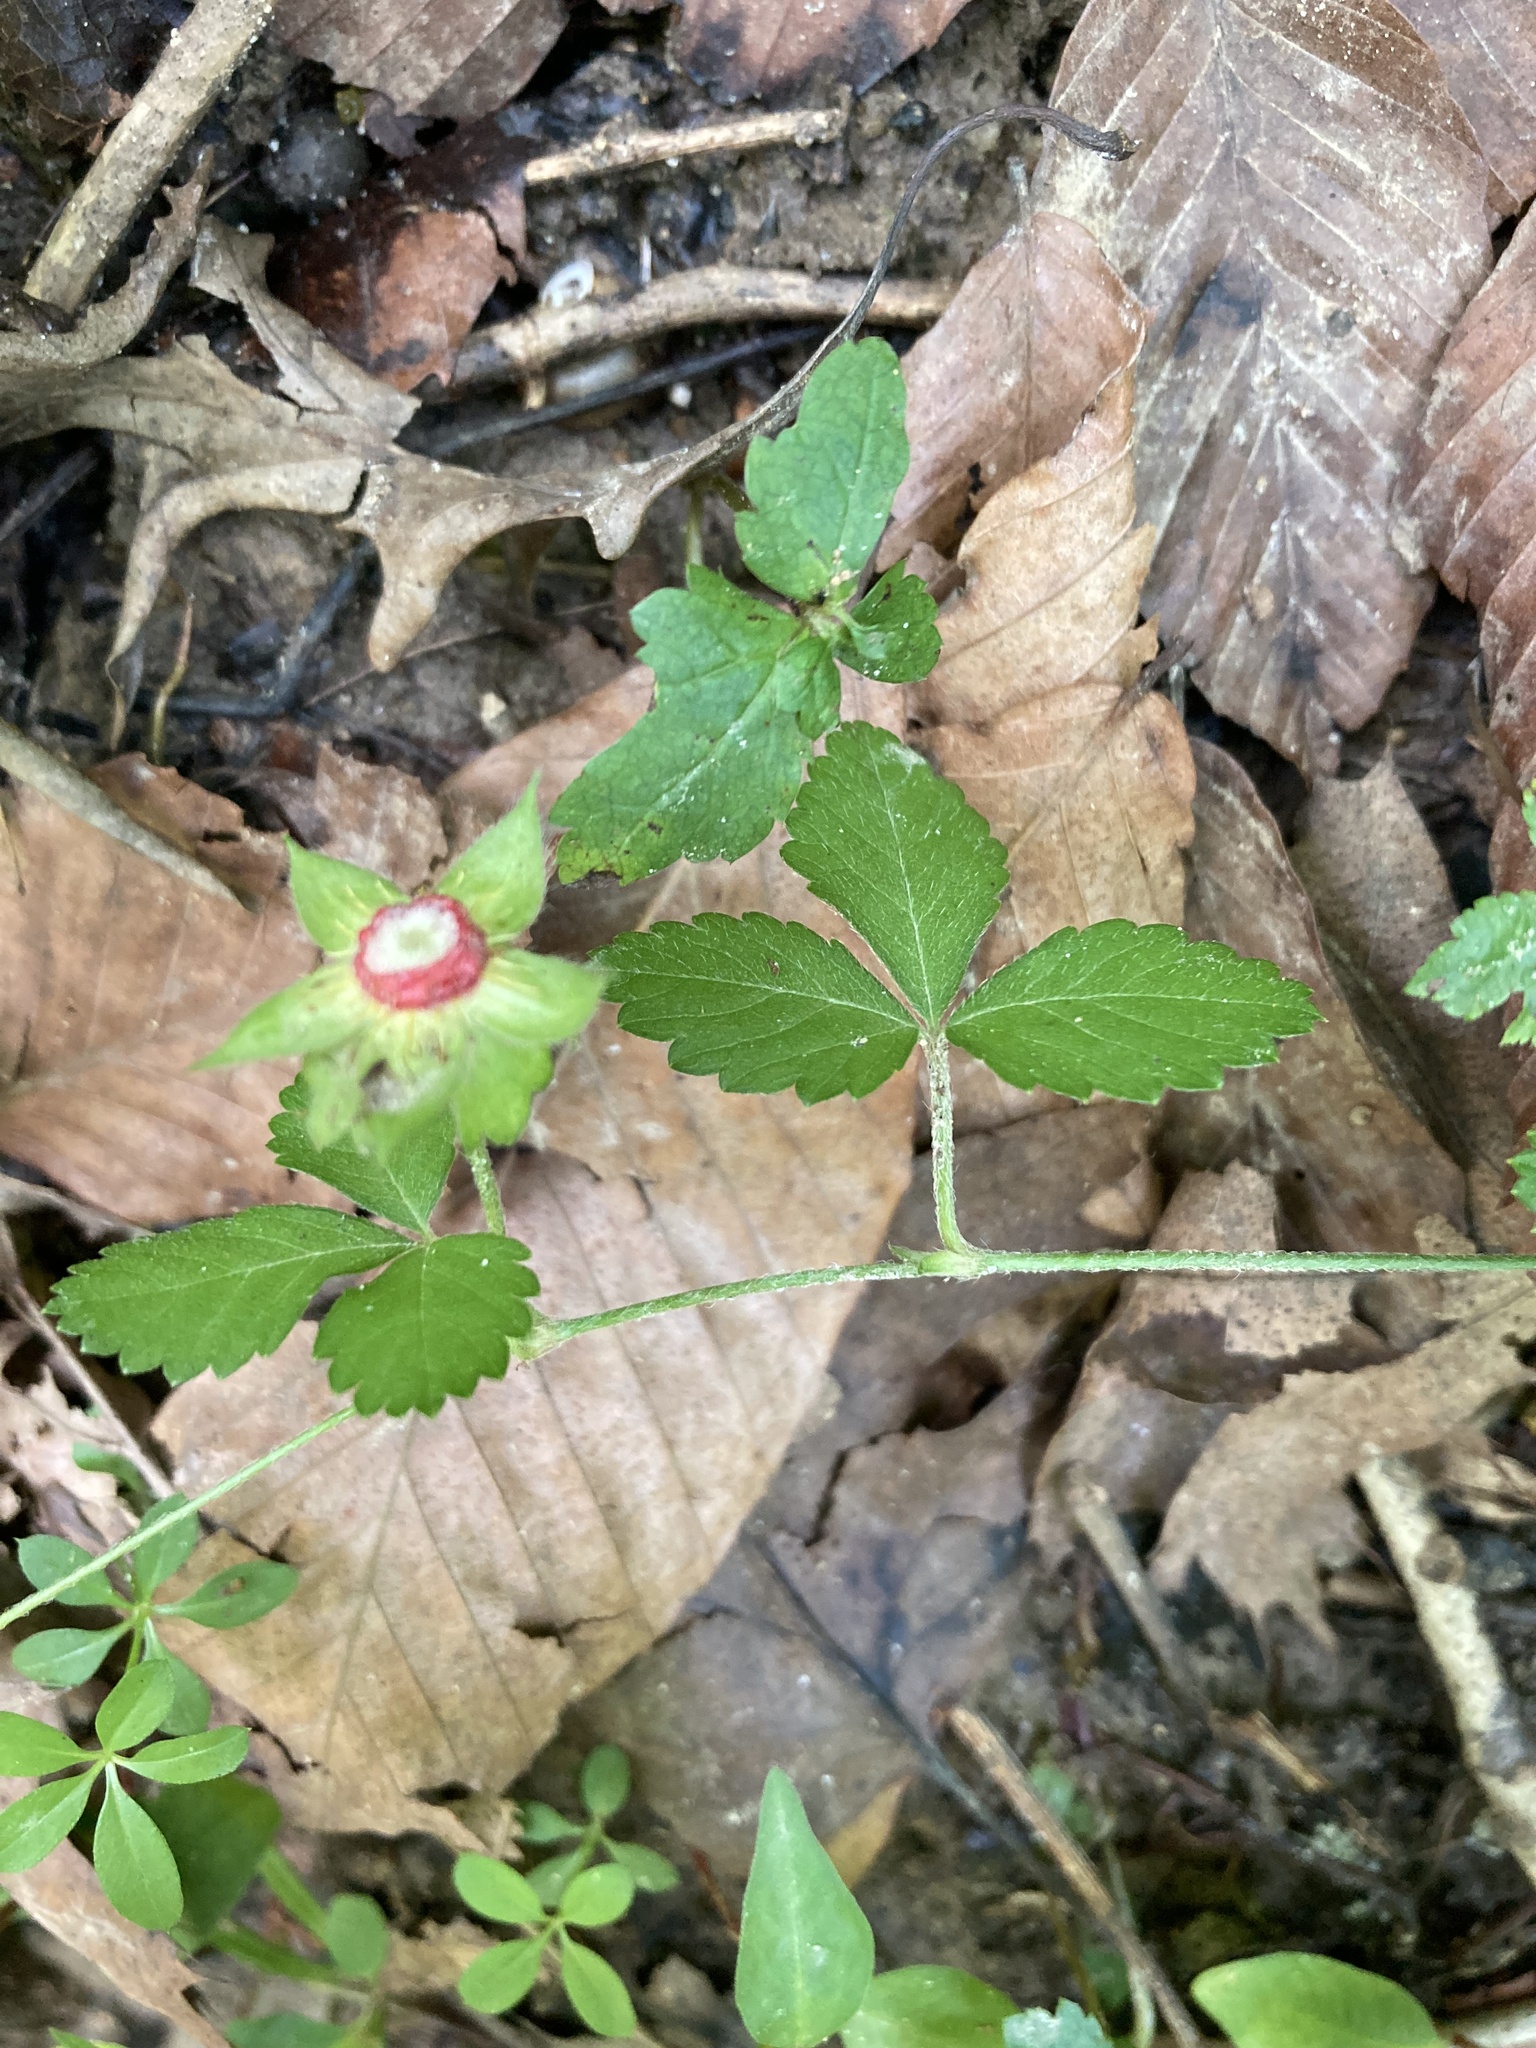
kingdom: Plantae
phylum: Tracheophyta
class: Magnoliopsida
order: Rosales
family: Rosaceae
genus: Potentilla
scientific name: Potentilla indica
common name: Yellow-flowered strawberry
